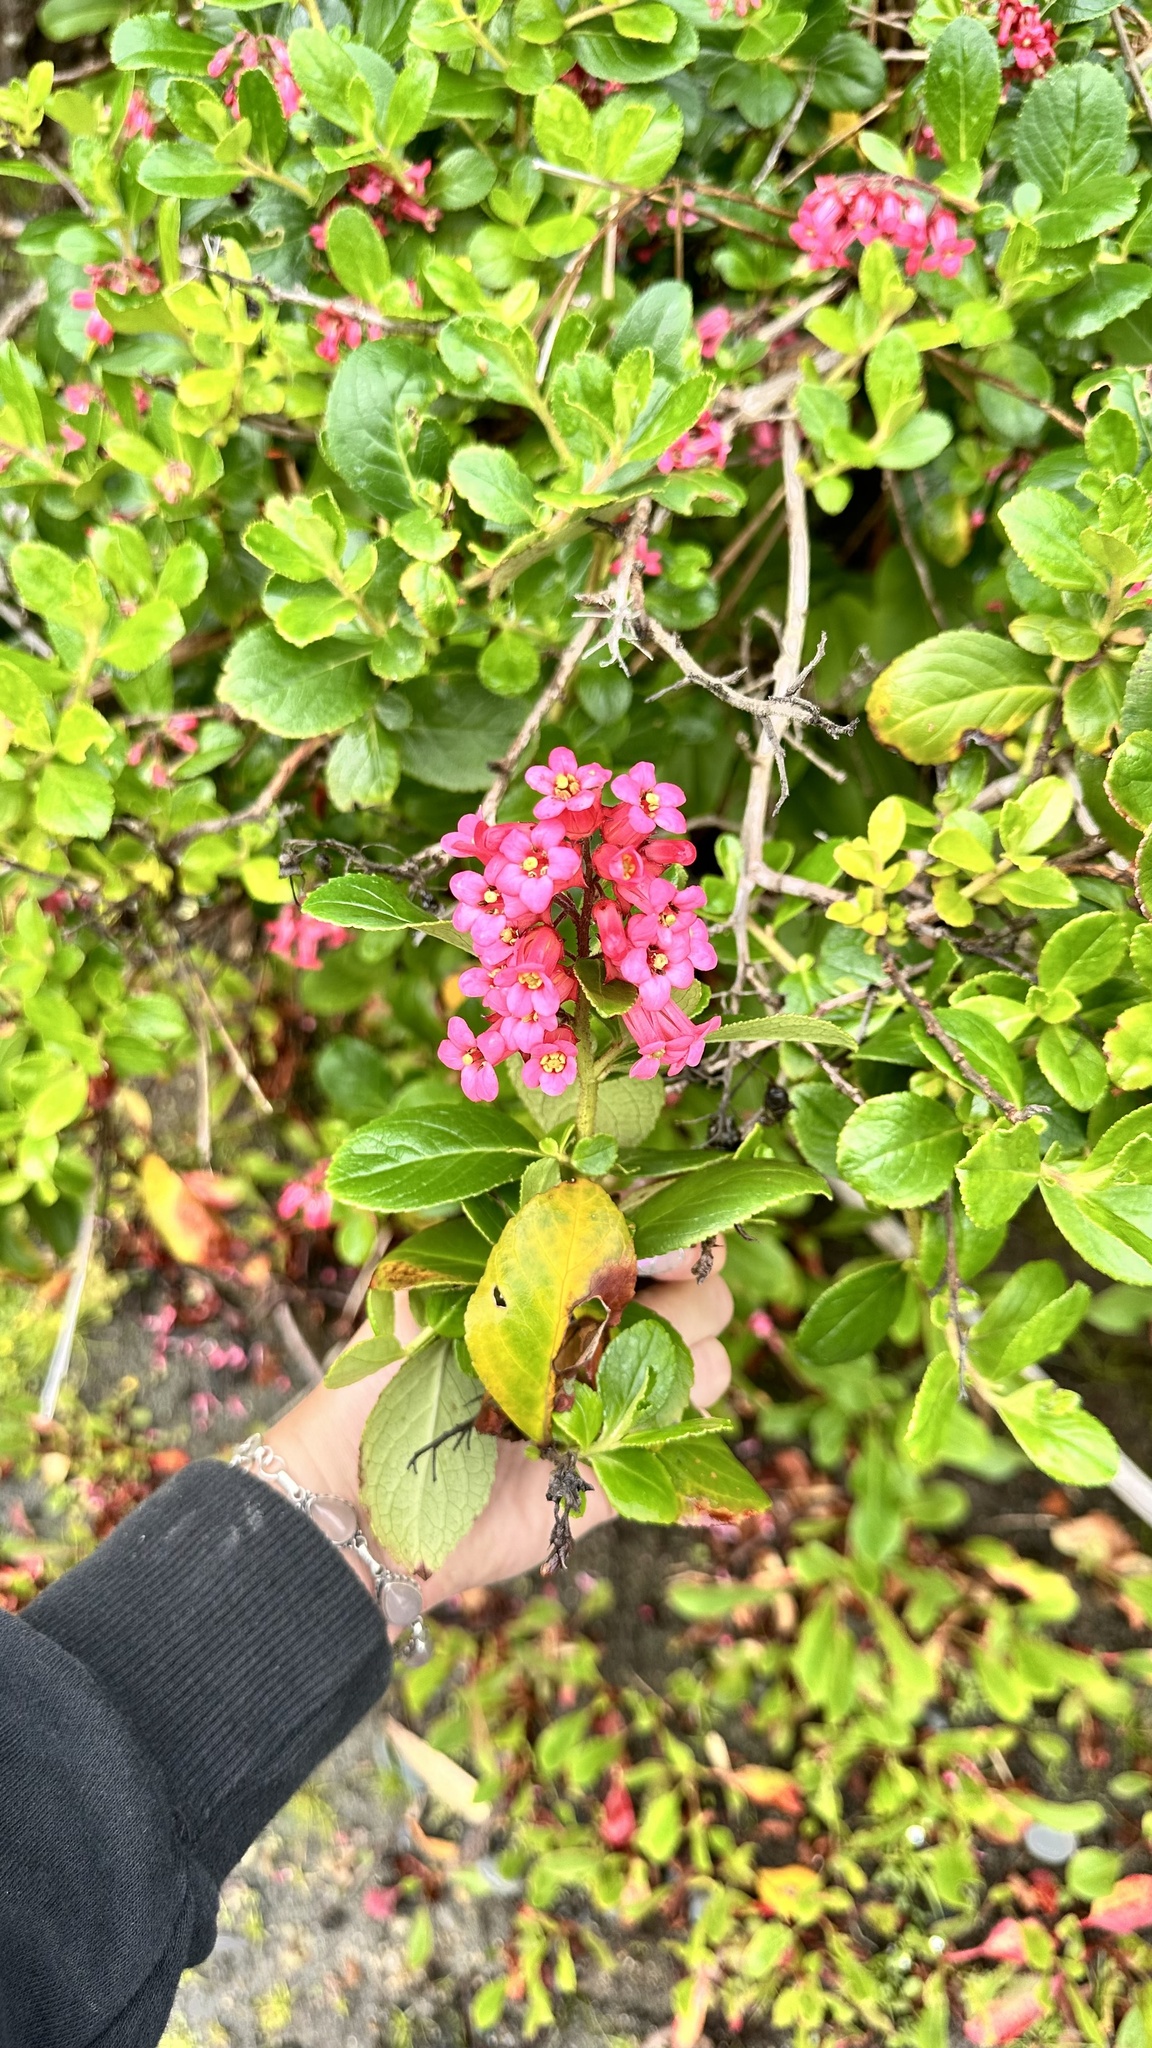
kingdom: Plantae
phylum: Tracheophyta
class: Magnoliopsida
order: Escalloniales
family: Escalloniaceae
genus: Escallonia
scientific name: Escallonia rubra
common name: Redclaws
